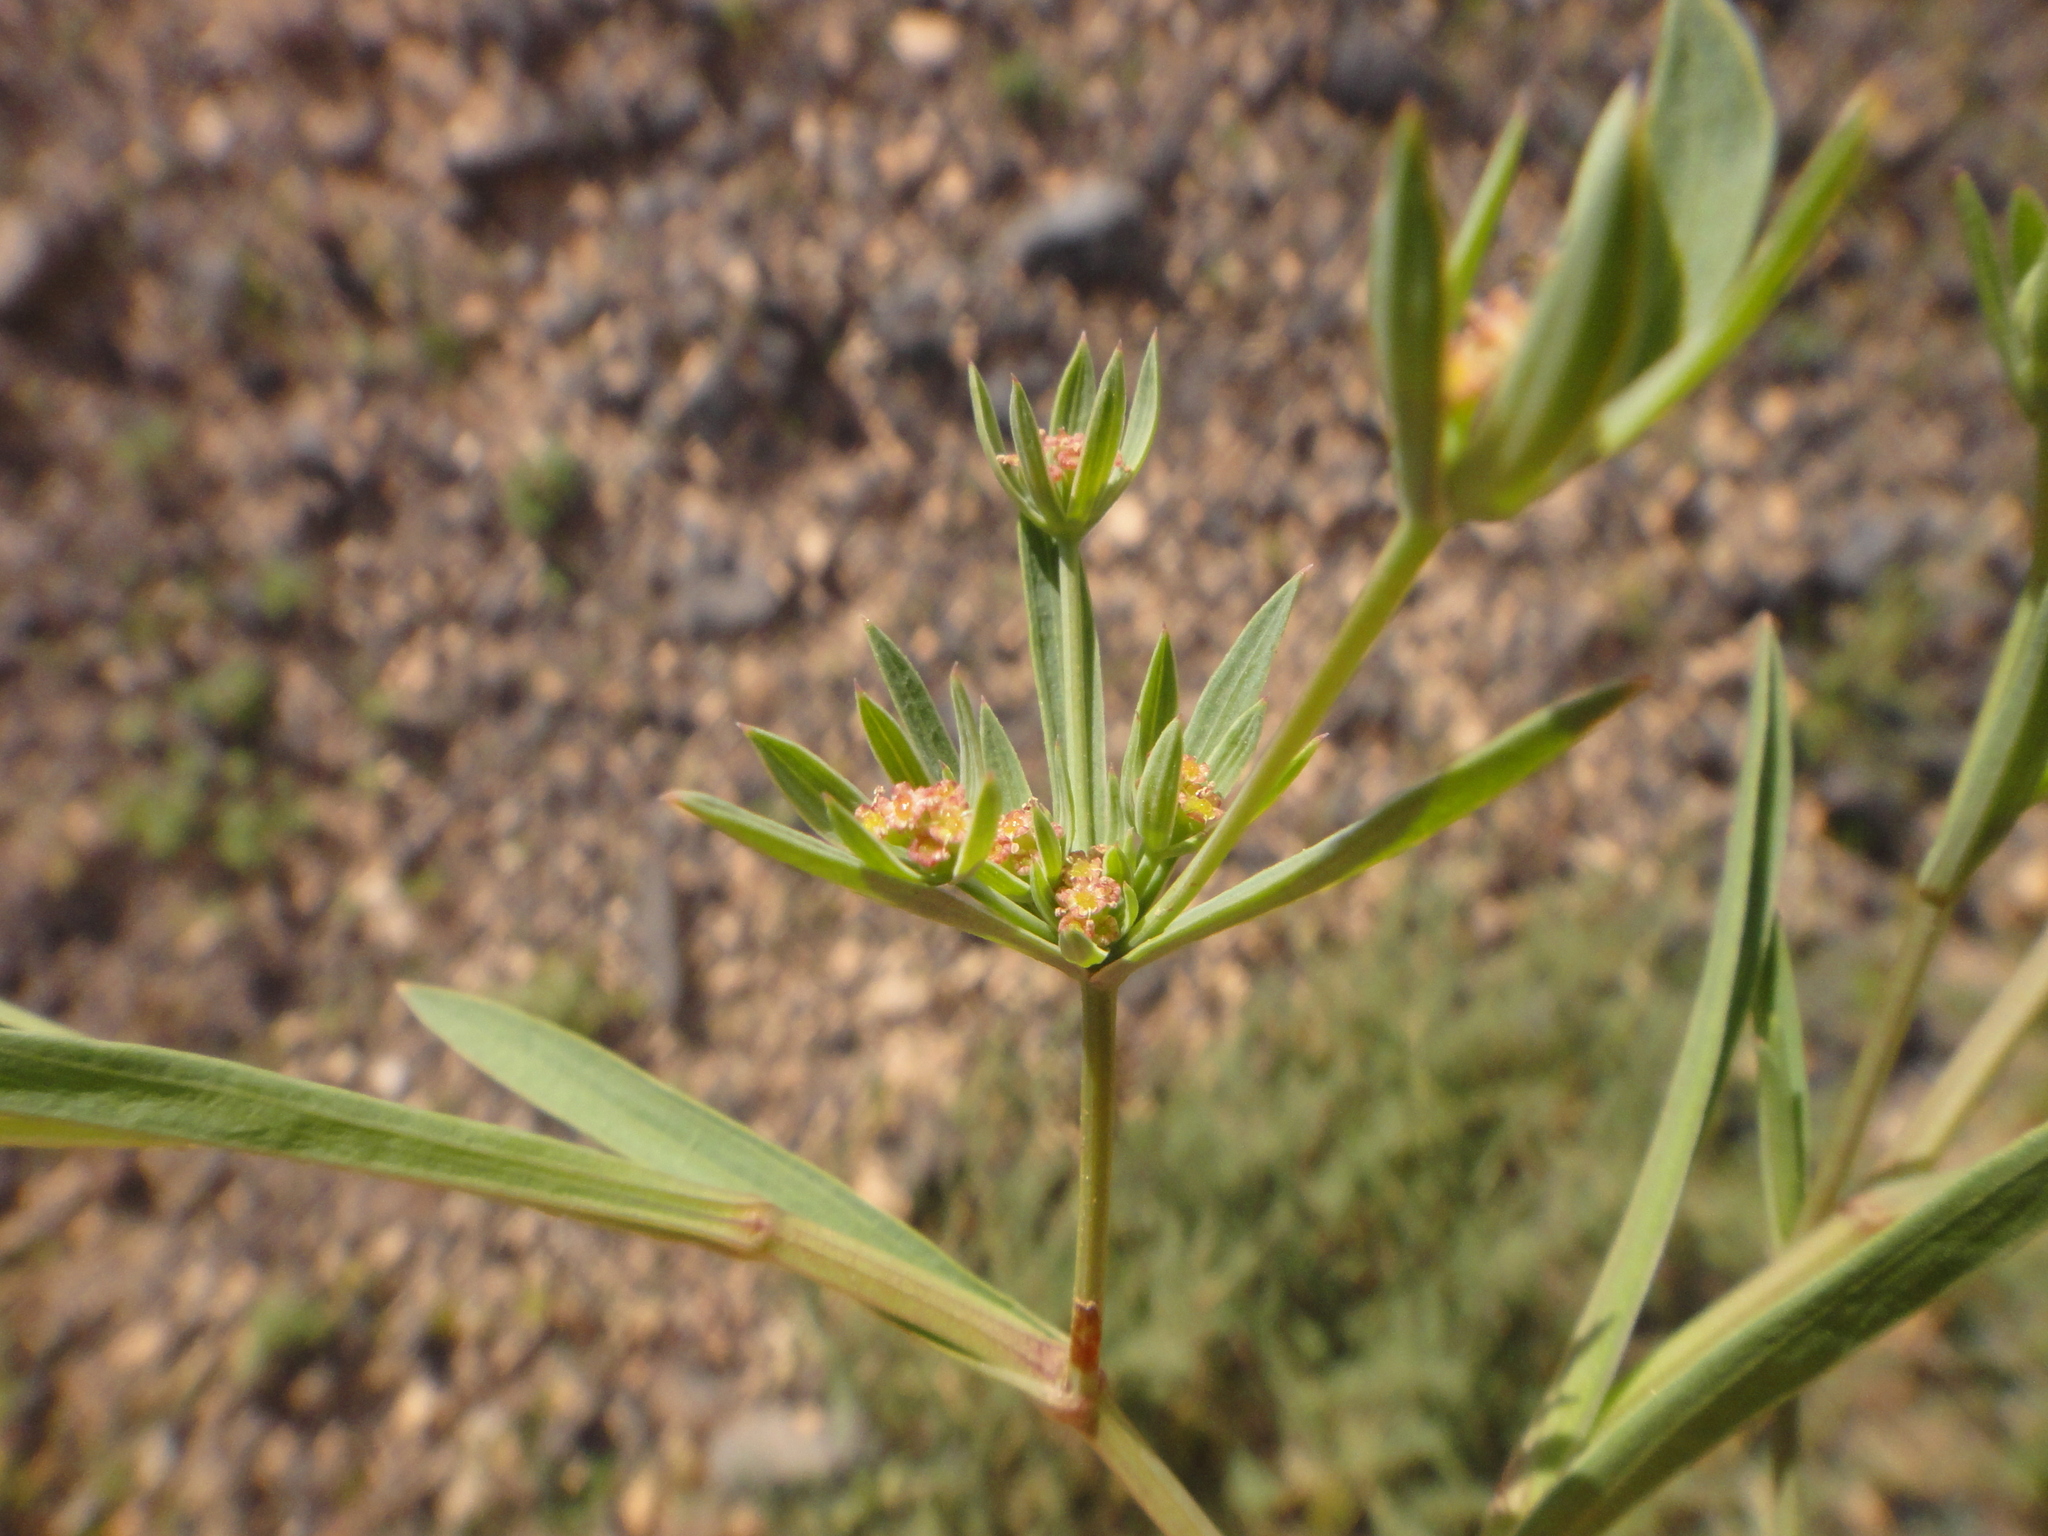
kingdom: Plantae
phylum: Tracheophyta
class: Magnoliopsida
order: Apiales
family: Apiaceae
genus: Bupleurum
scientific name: Bupleurum semicompositum
